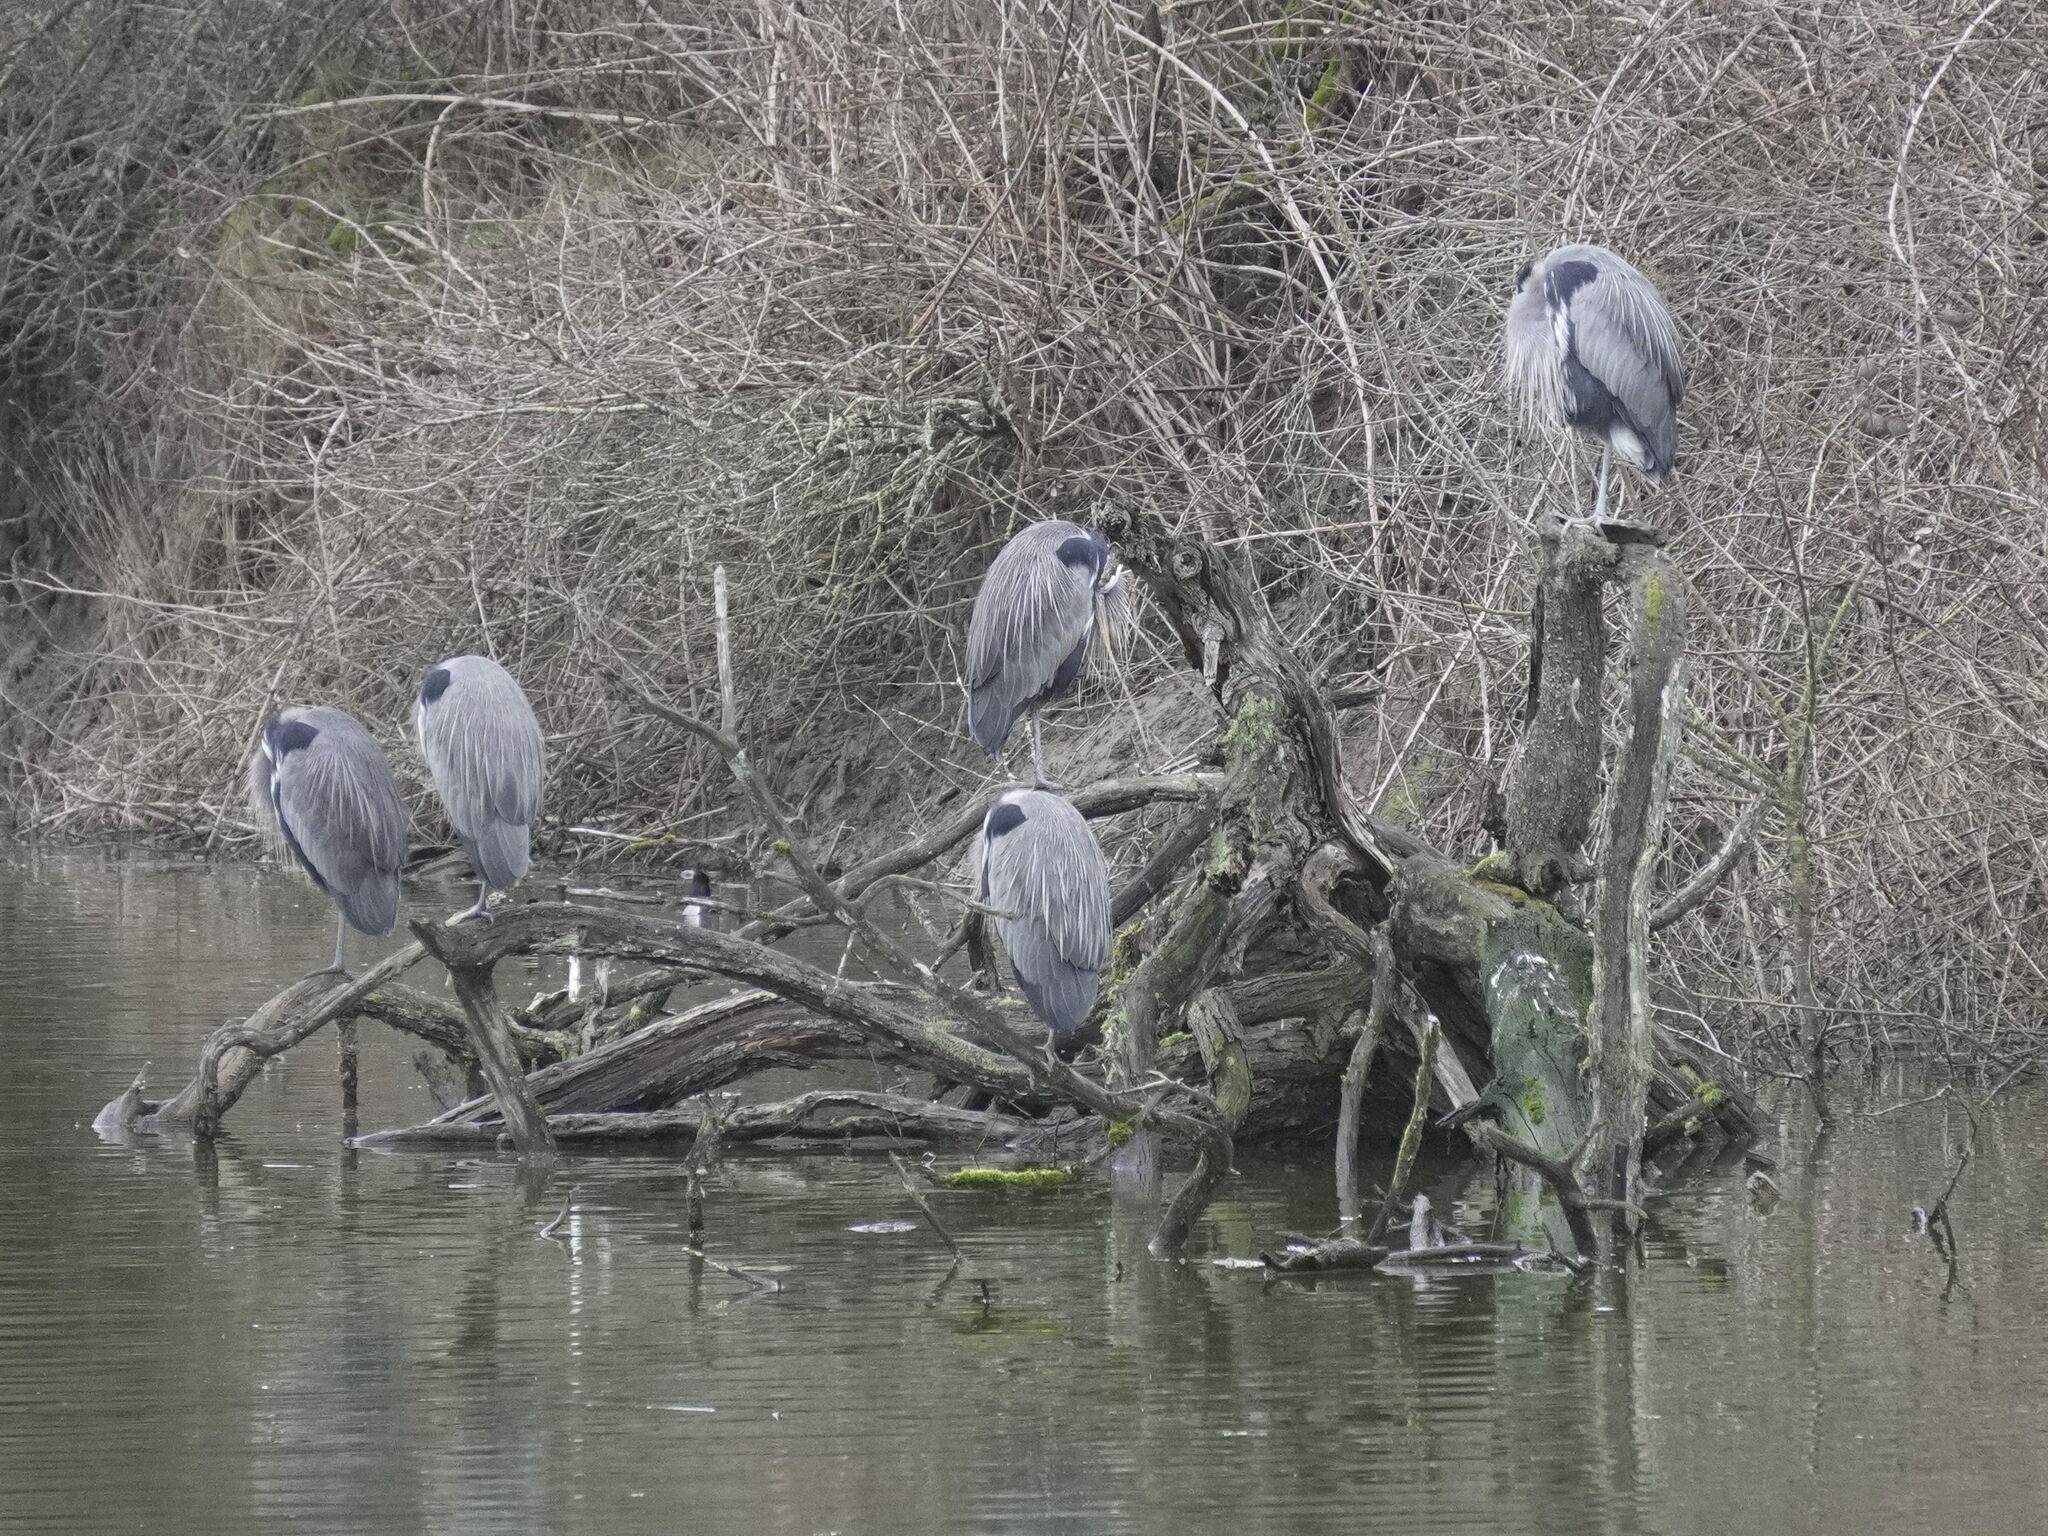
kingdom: Animalia
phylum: Chordata
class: Aves
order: Pelecaniformes
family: Ardeidae
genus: Ardea
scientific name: Ardea herodias
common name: Great blue heron
